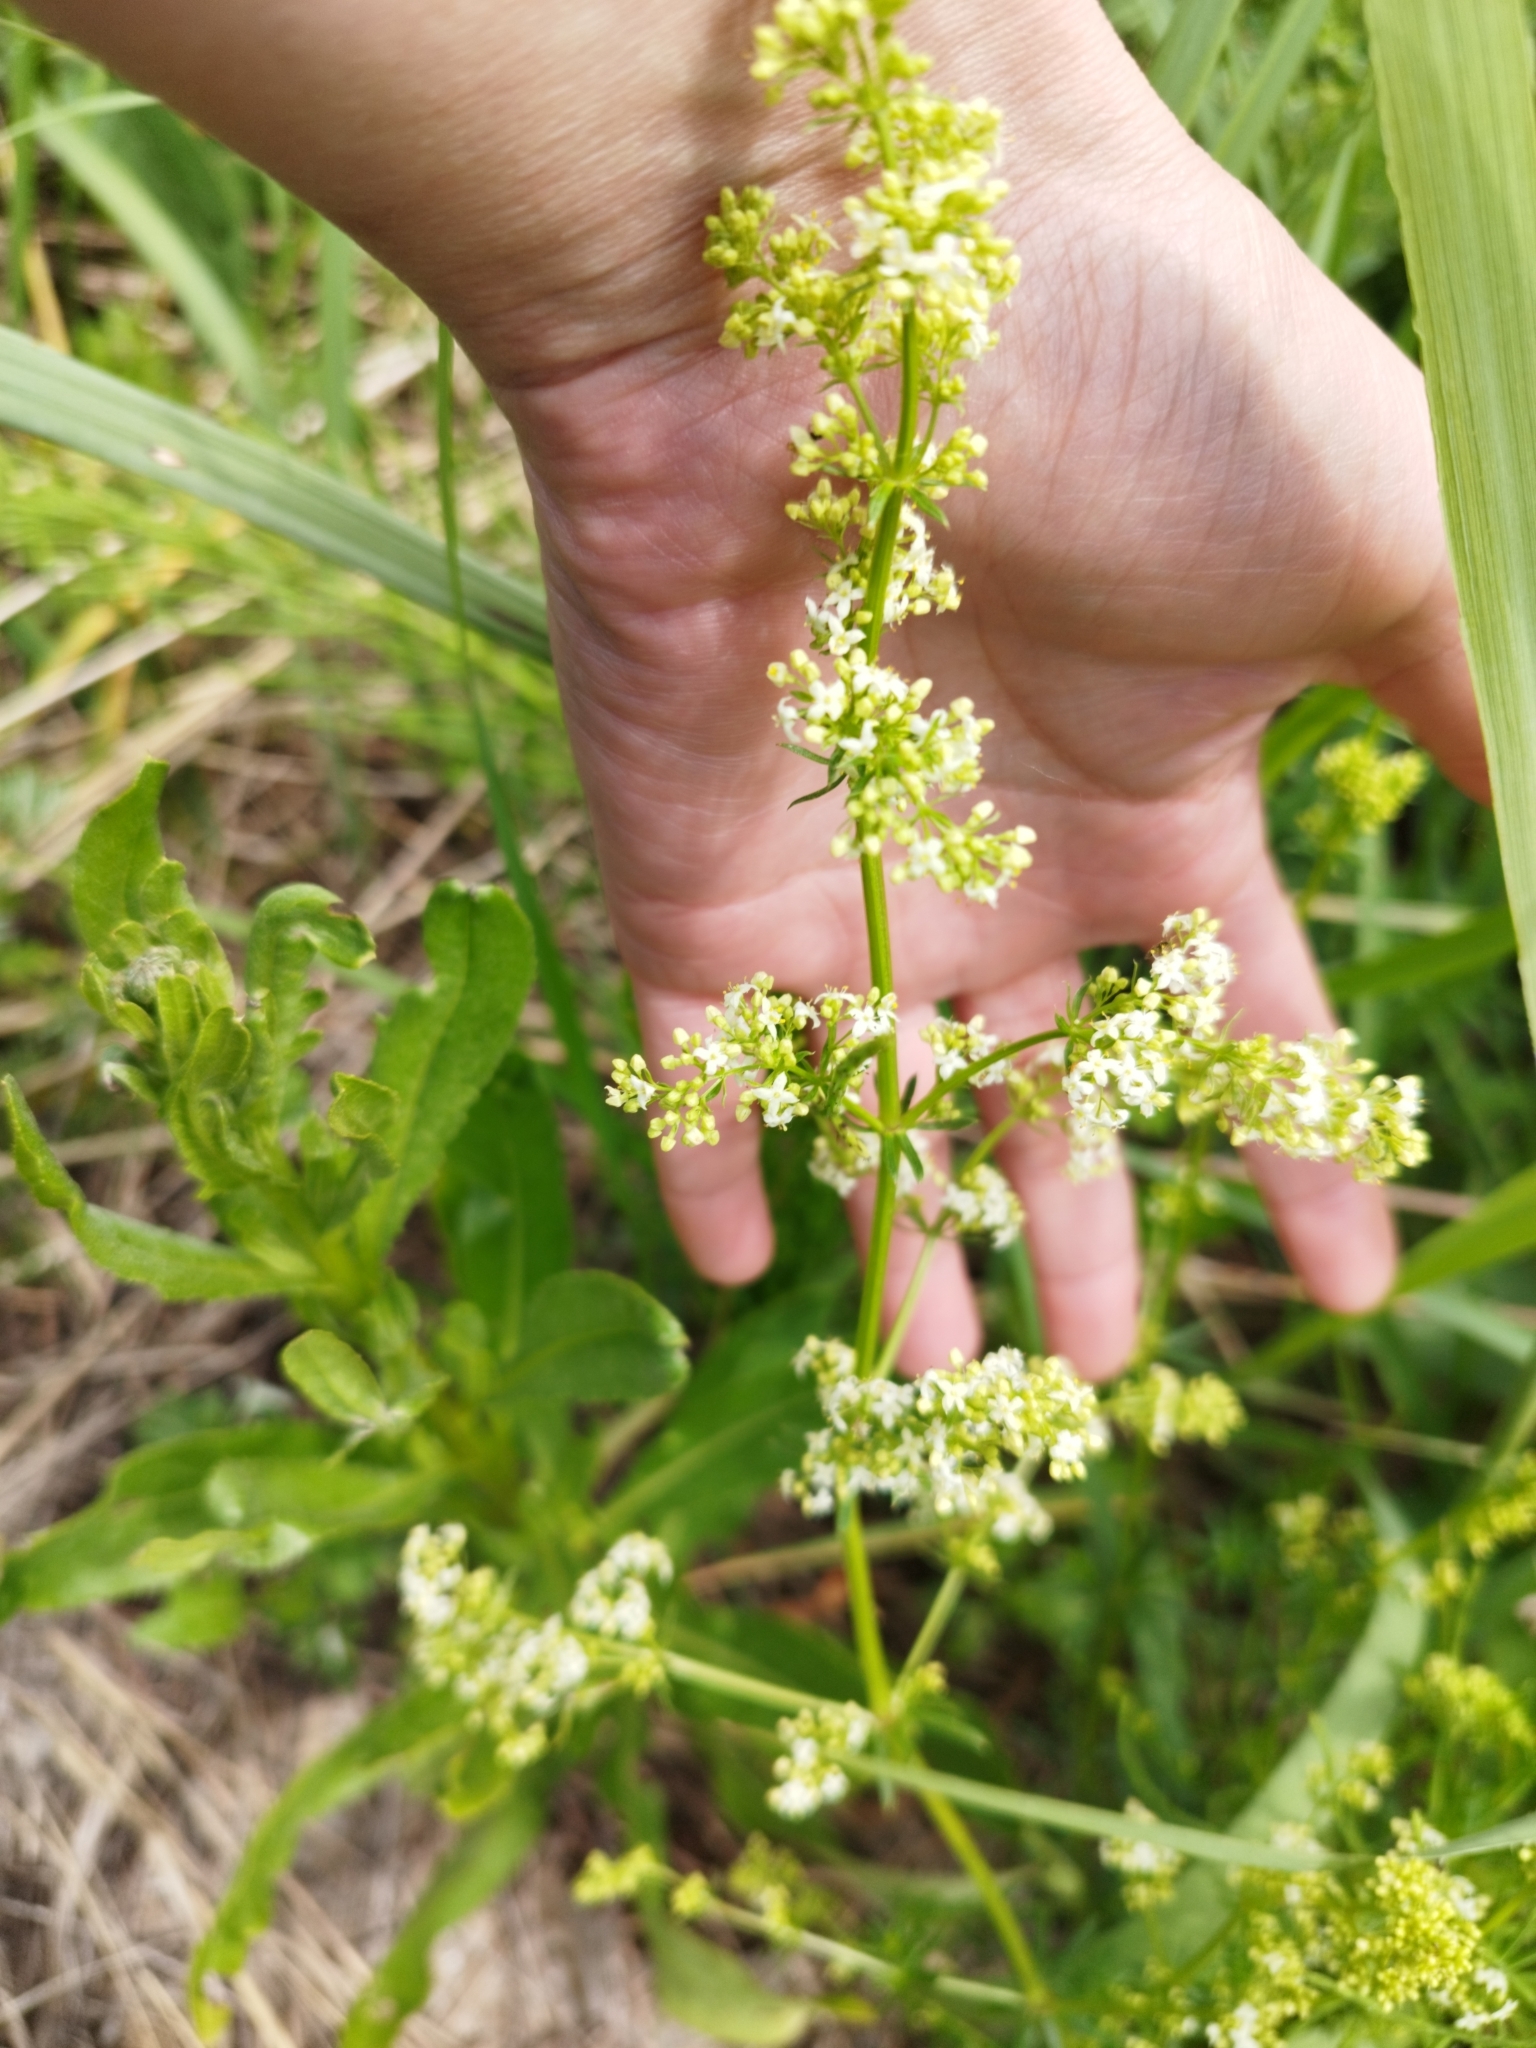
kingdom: Plantae
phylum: Tracheophyta
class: Magnoliopsida
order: Gentianales
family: Rubiaceae
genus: Galium
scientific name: Galium mollugo
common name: Hedge bedstraw
